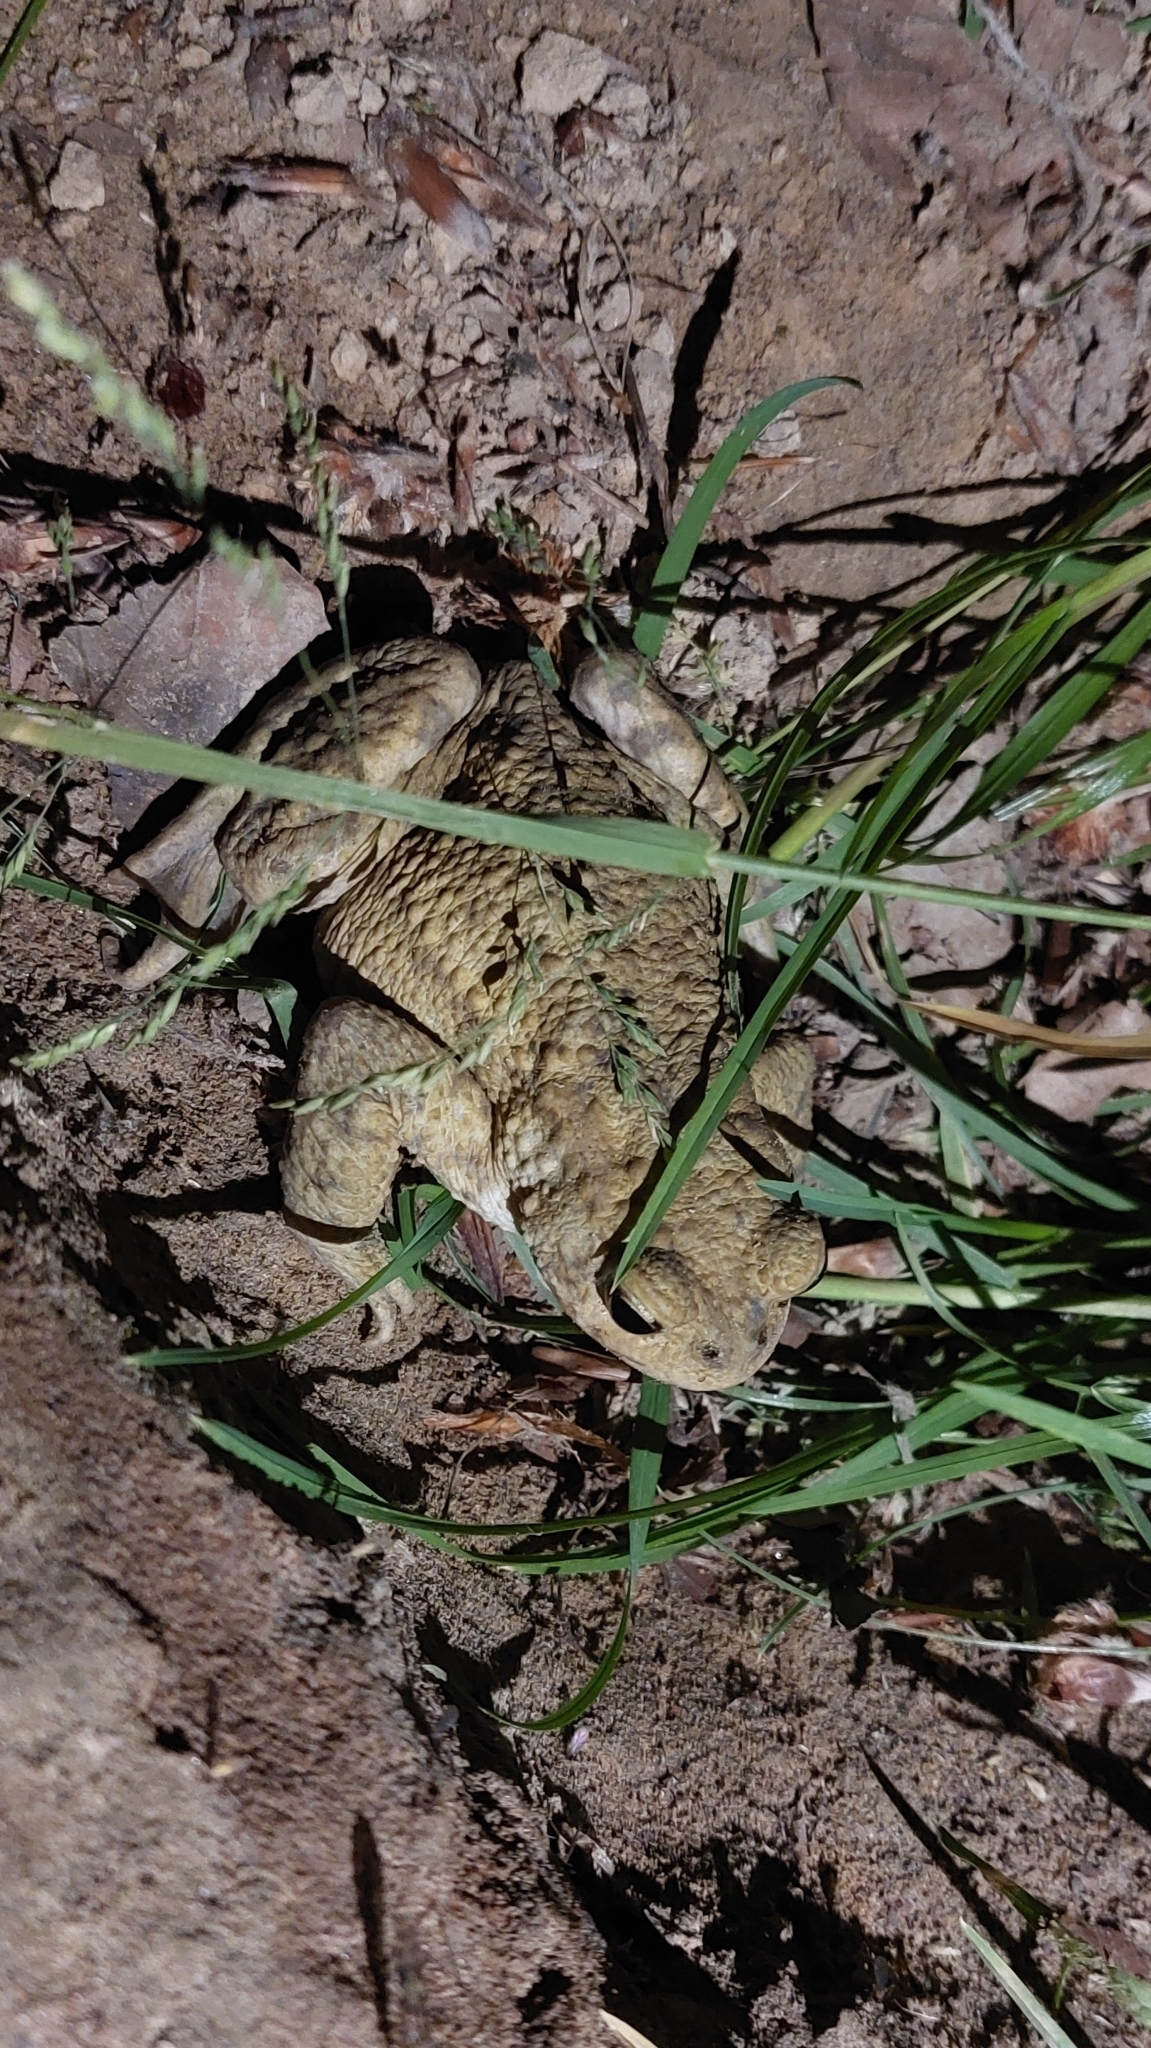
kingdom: Animalia
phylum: Chordata
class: Amphibia
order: Anura
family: Bufonidae
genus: Bufo
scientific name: Bufo bufo
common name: Common toad
